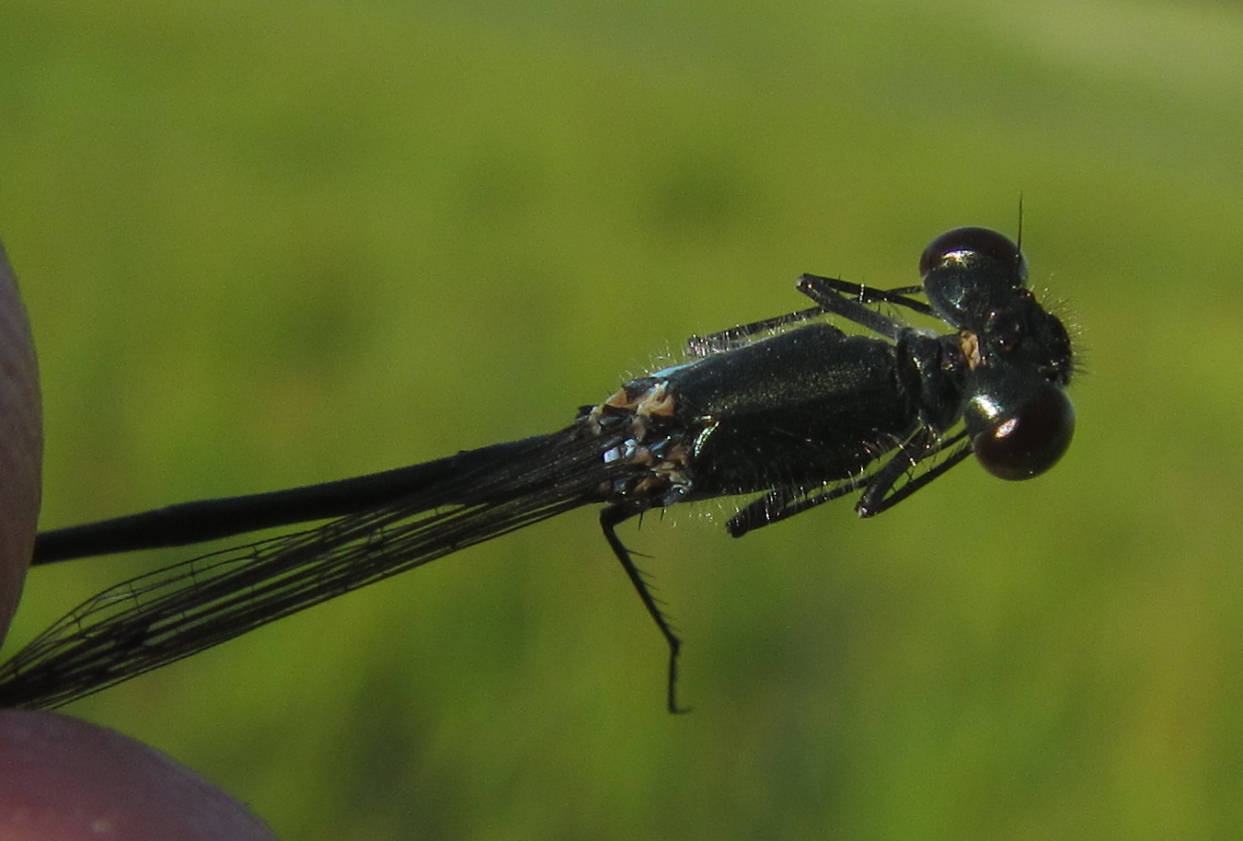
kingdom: Animalia
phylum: Arthropoda
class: Insecta
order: Odonata
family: Coenagrionidae
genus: Pseudagrion
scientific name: Pseudagrion deningi
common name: Dening's sprite
